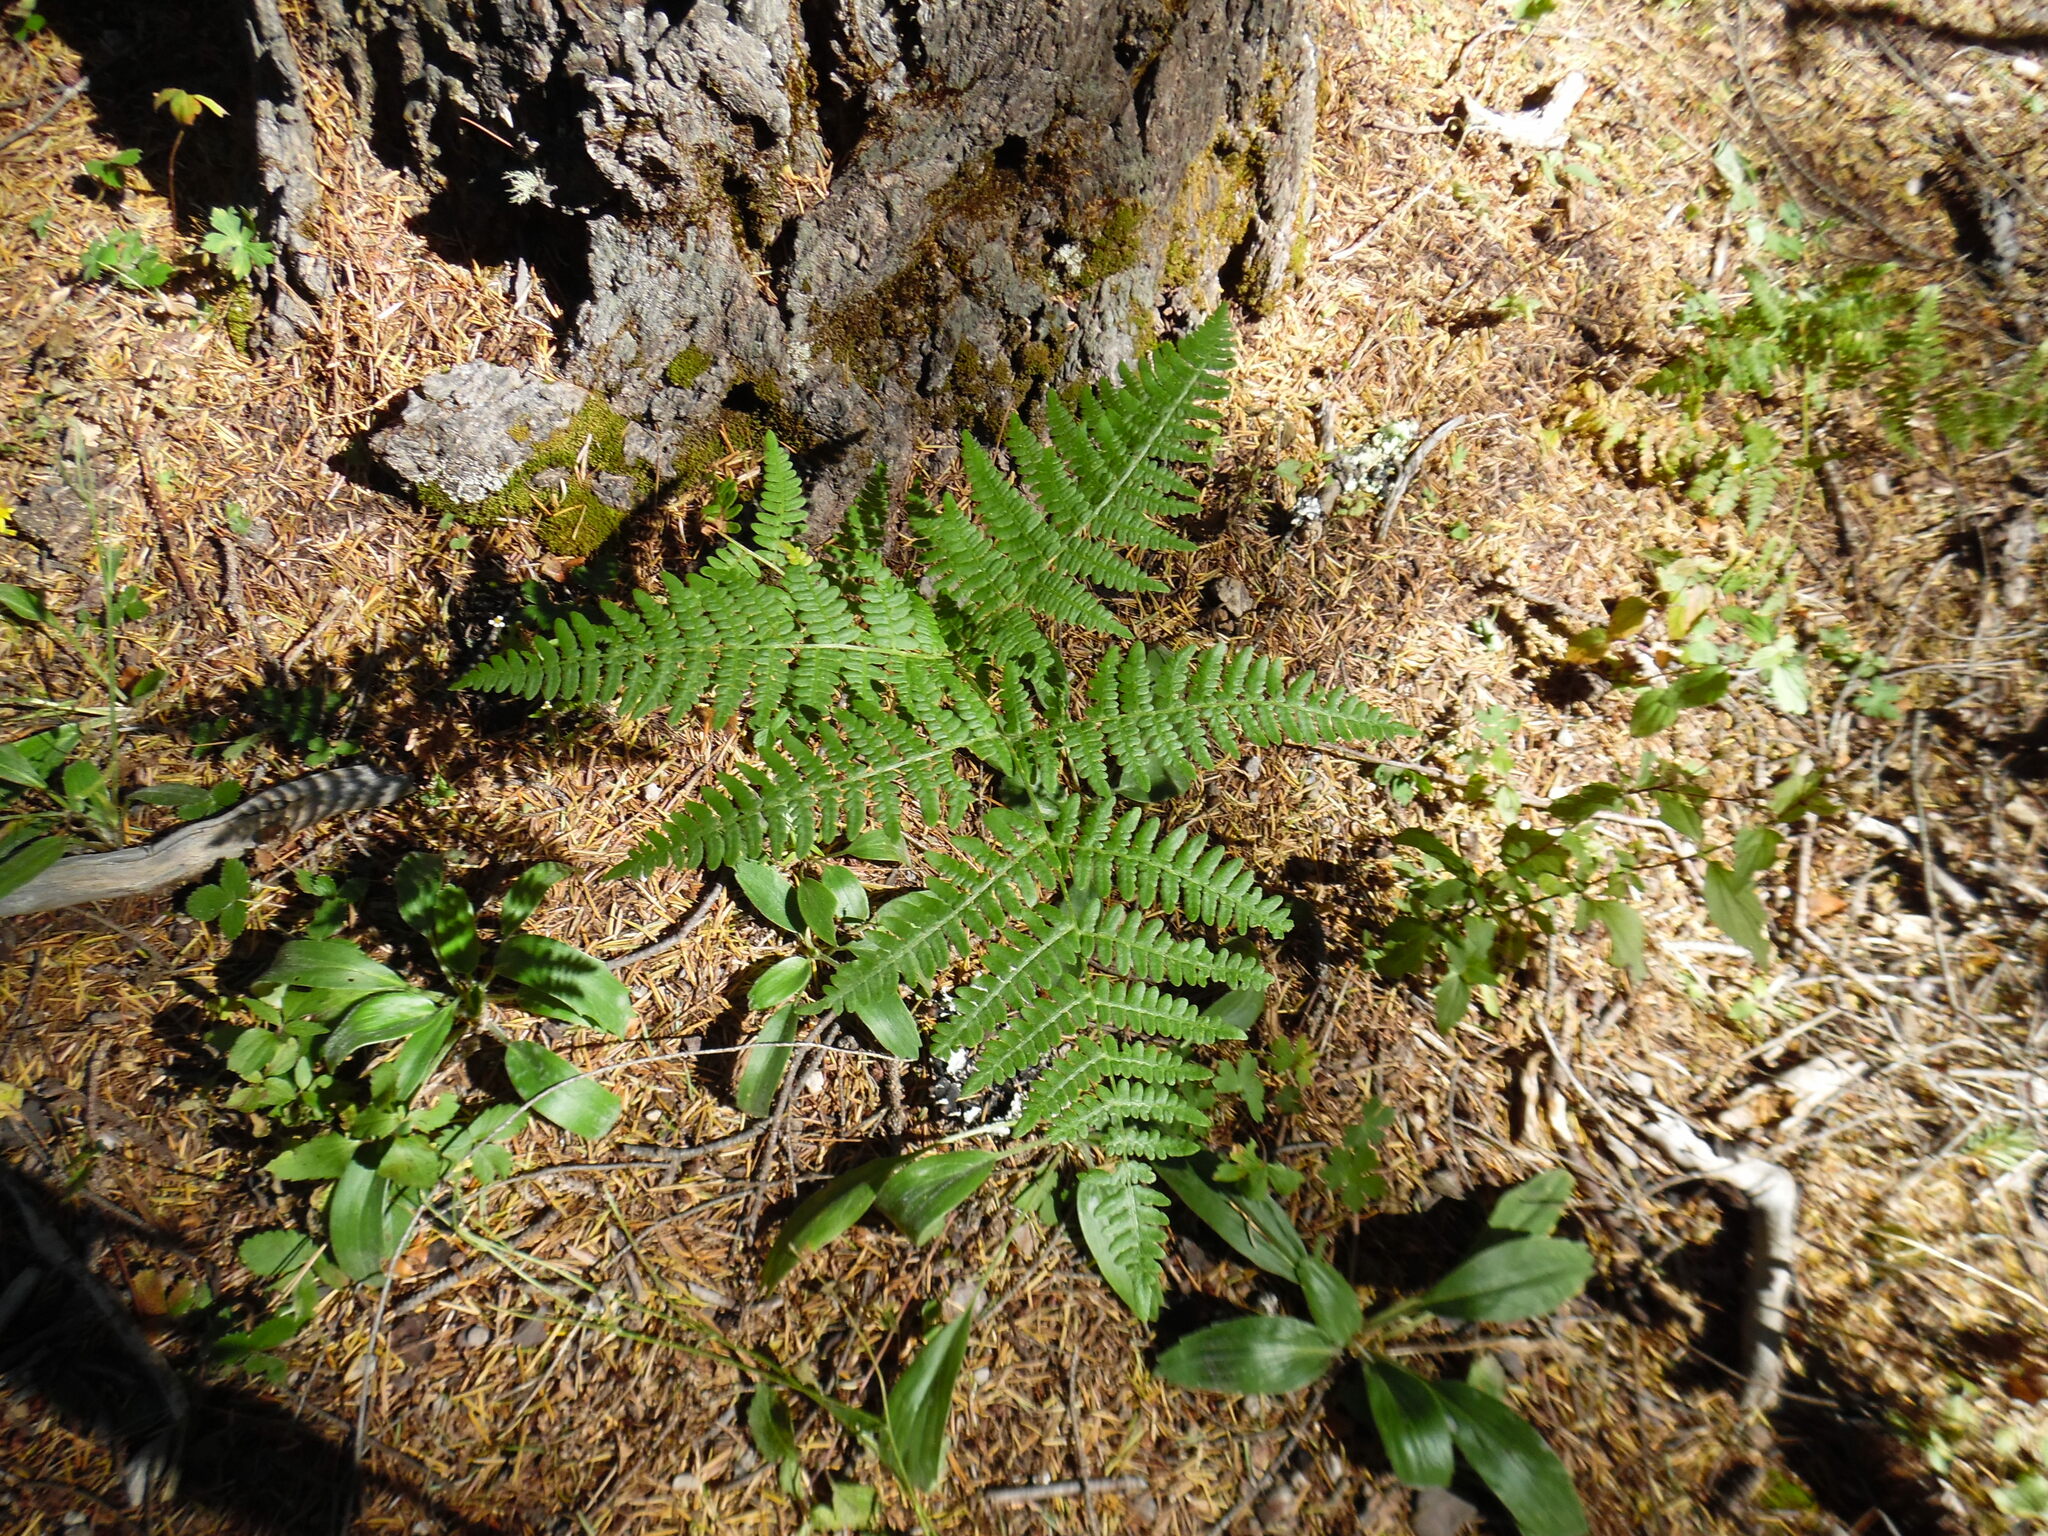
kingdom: Plantae
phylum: Tracheophyta
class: Polypodiopsida
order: Polypodiales
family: Dennstaedtiaceae
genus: Pteridium
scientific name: Pteridium aquilinum
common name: Bracken
